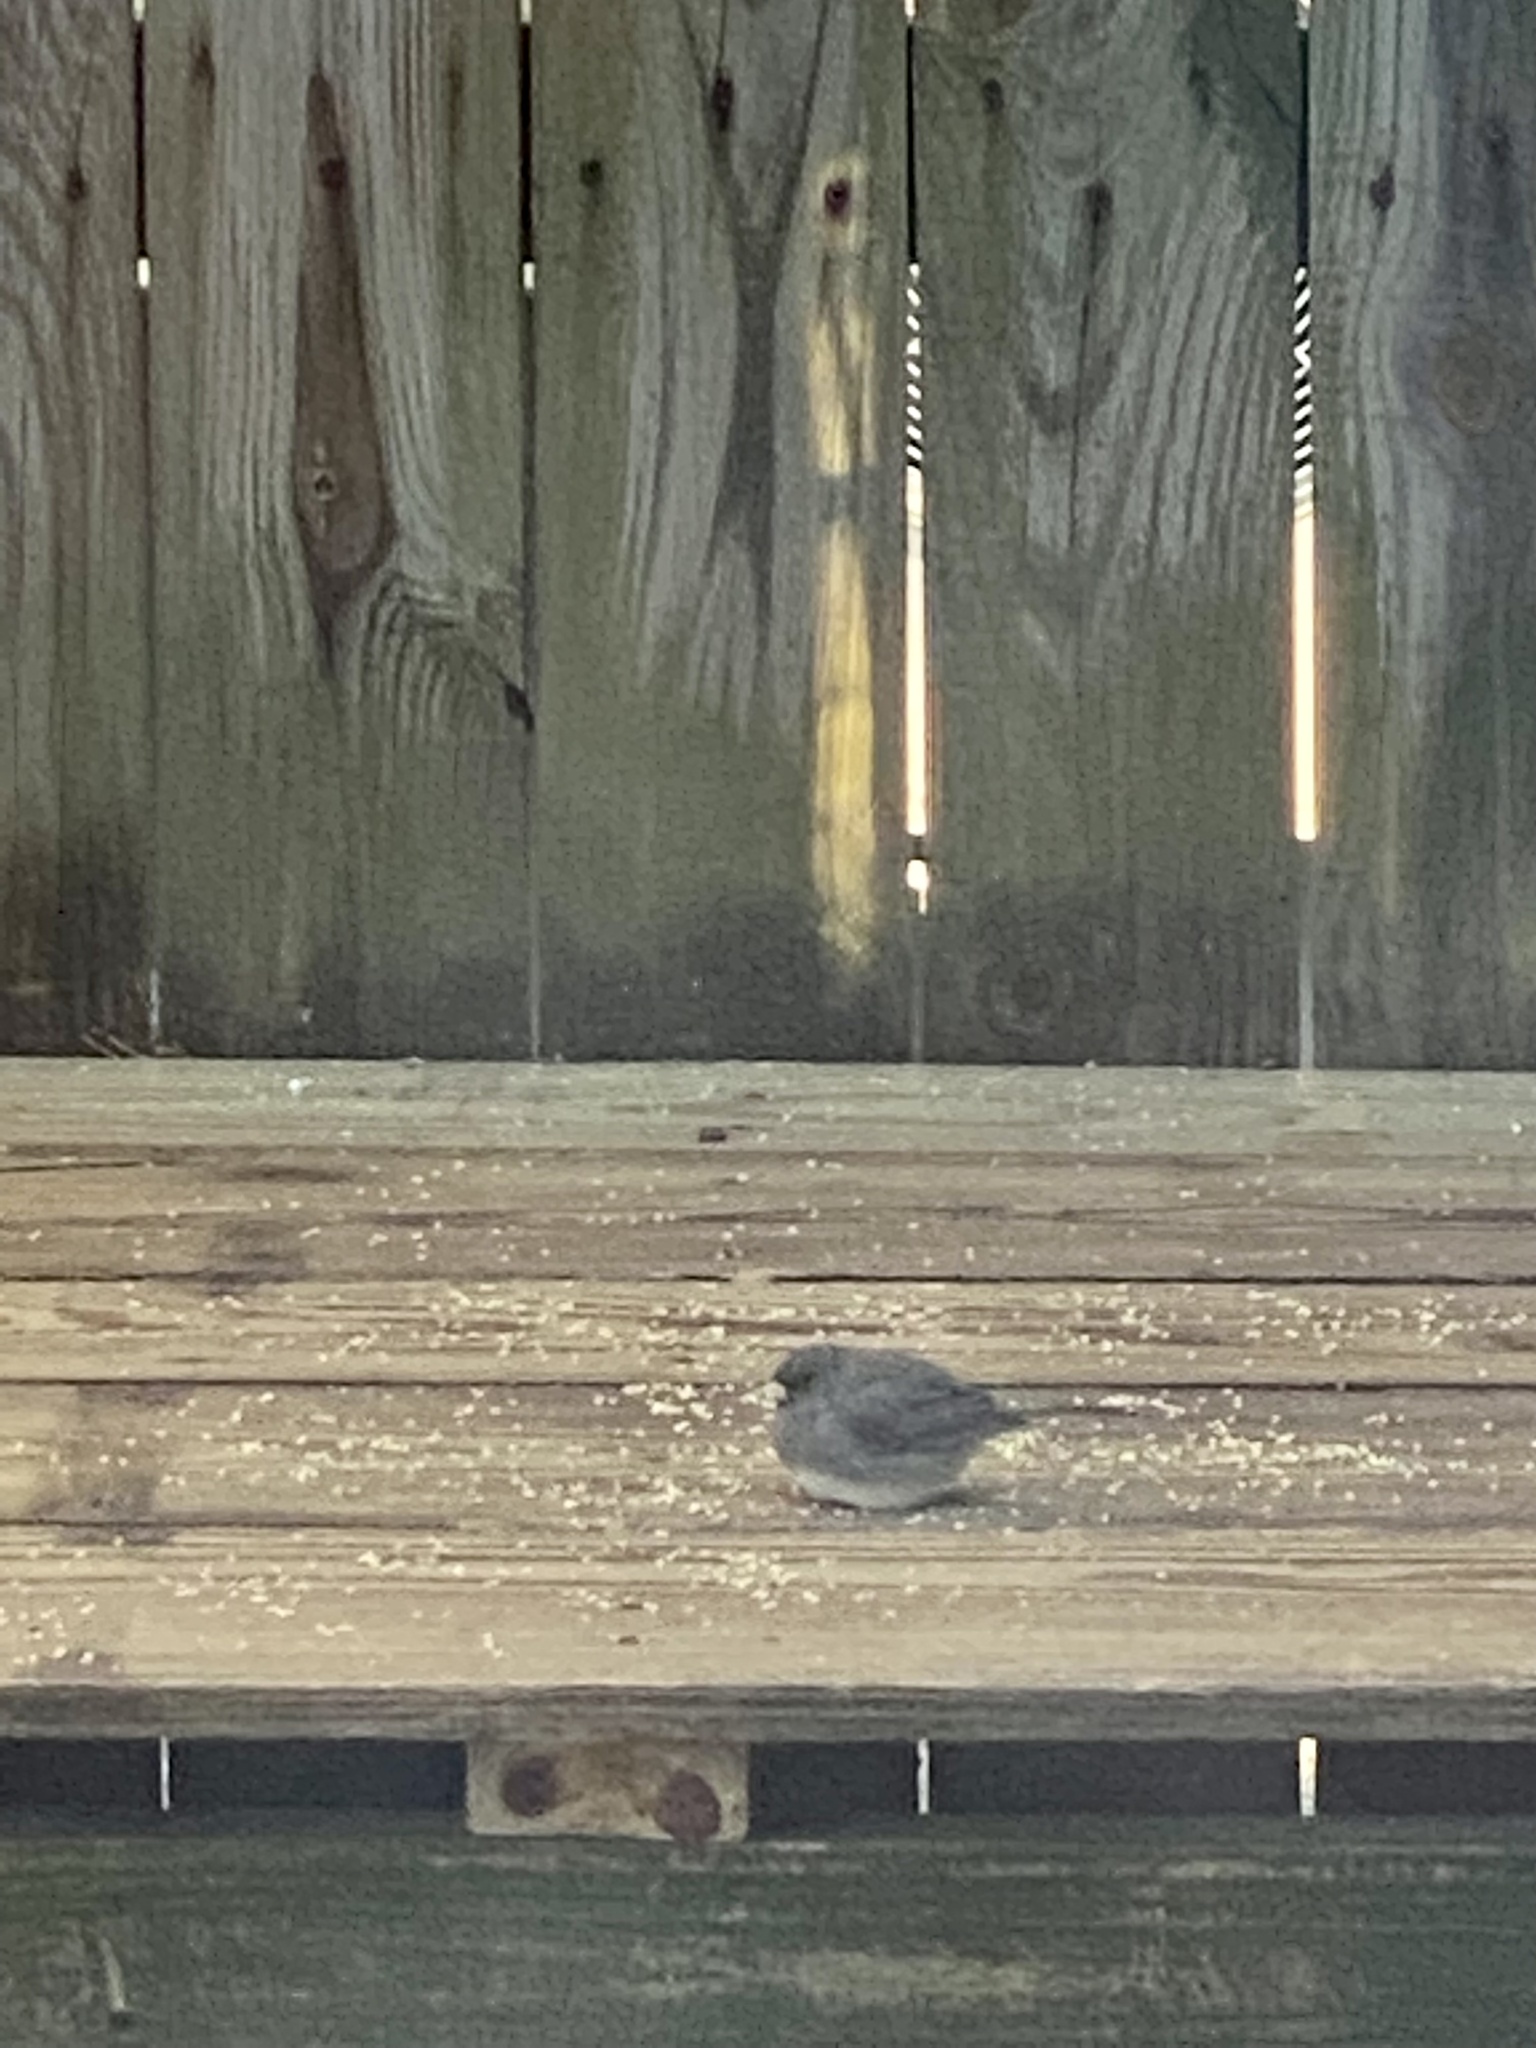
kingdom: Animalia
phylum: Chordata
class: Aves
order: Passeriformes
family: Passerellidae
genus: Junco
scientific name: Junco hyemalis
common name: Dark-eyed junco
